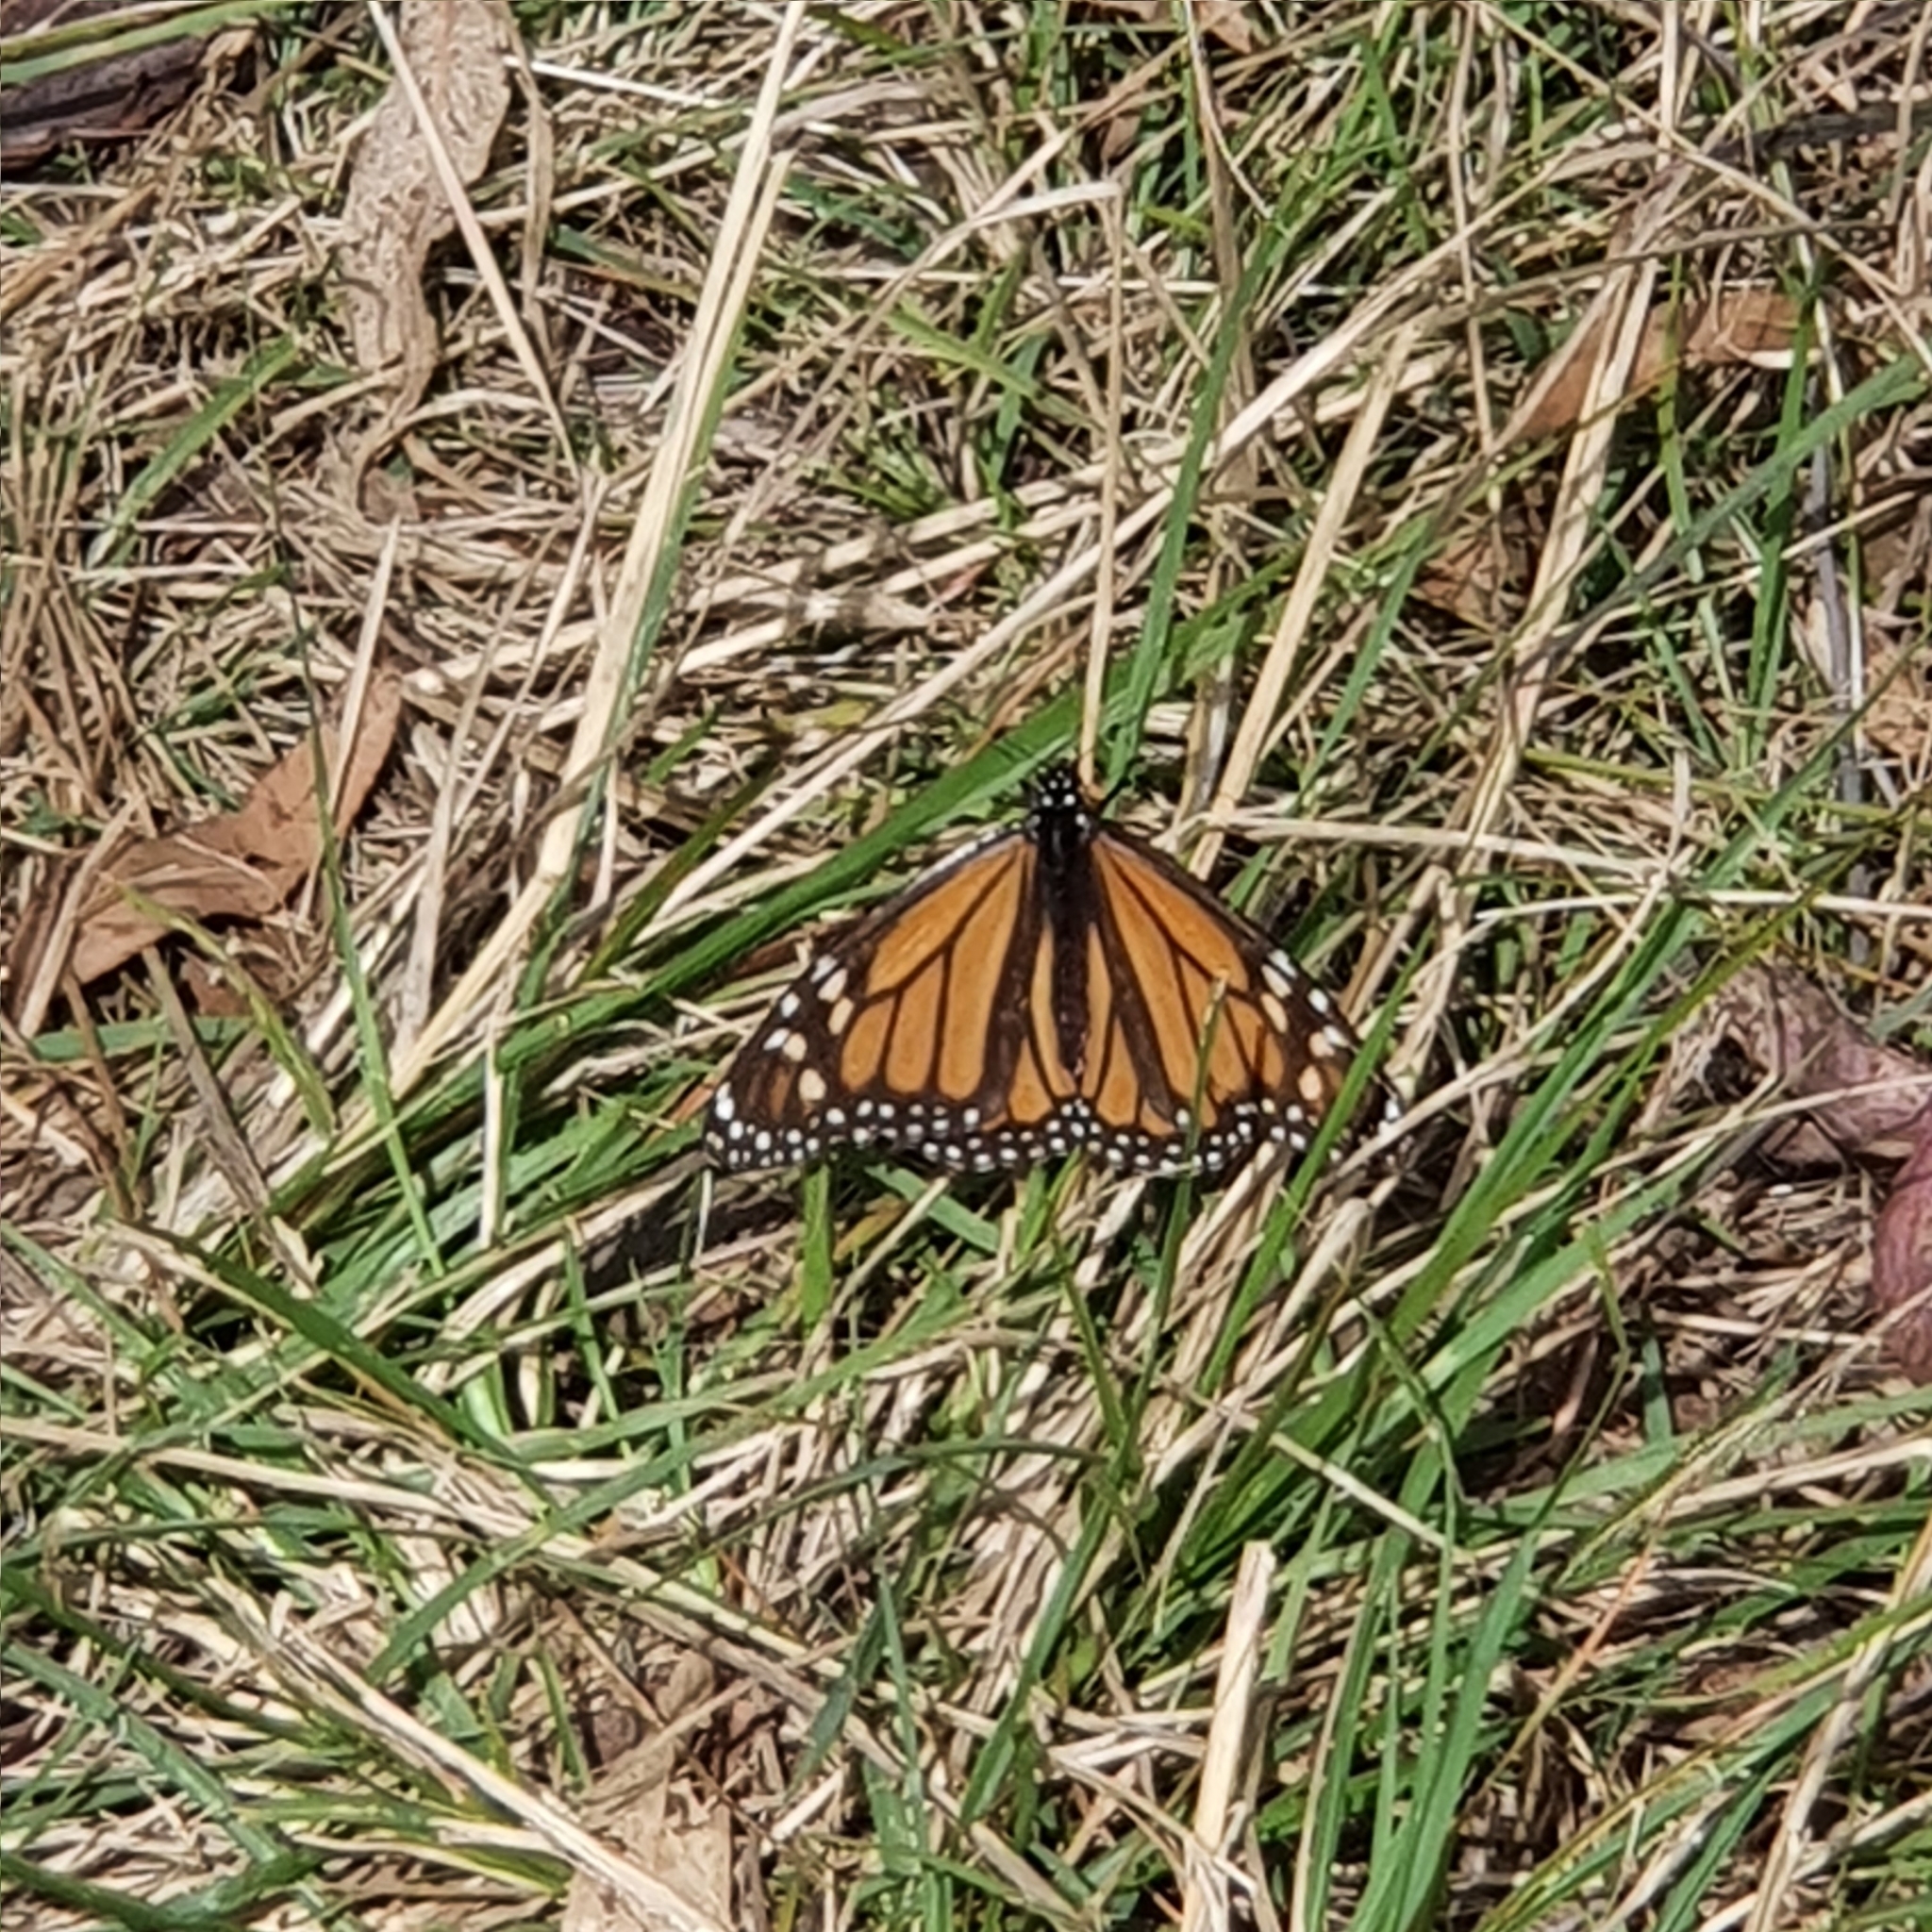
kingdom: Animalia
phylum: Arthropoda
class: Insecta
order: Lepidoptera
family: Nymphalidae
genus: Danaus
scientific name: Danaus plexippus
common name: Monarch
